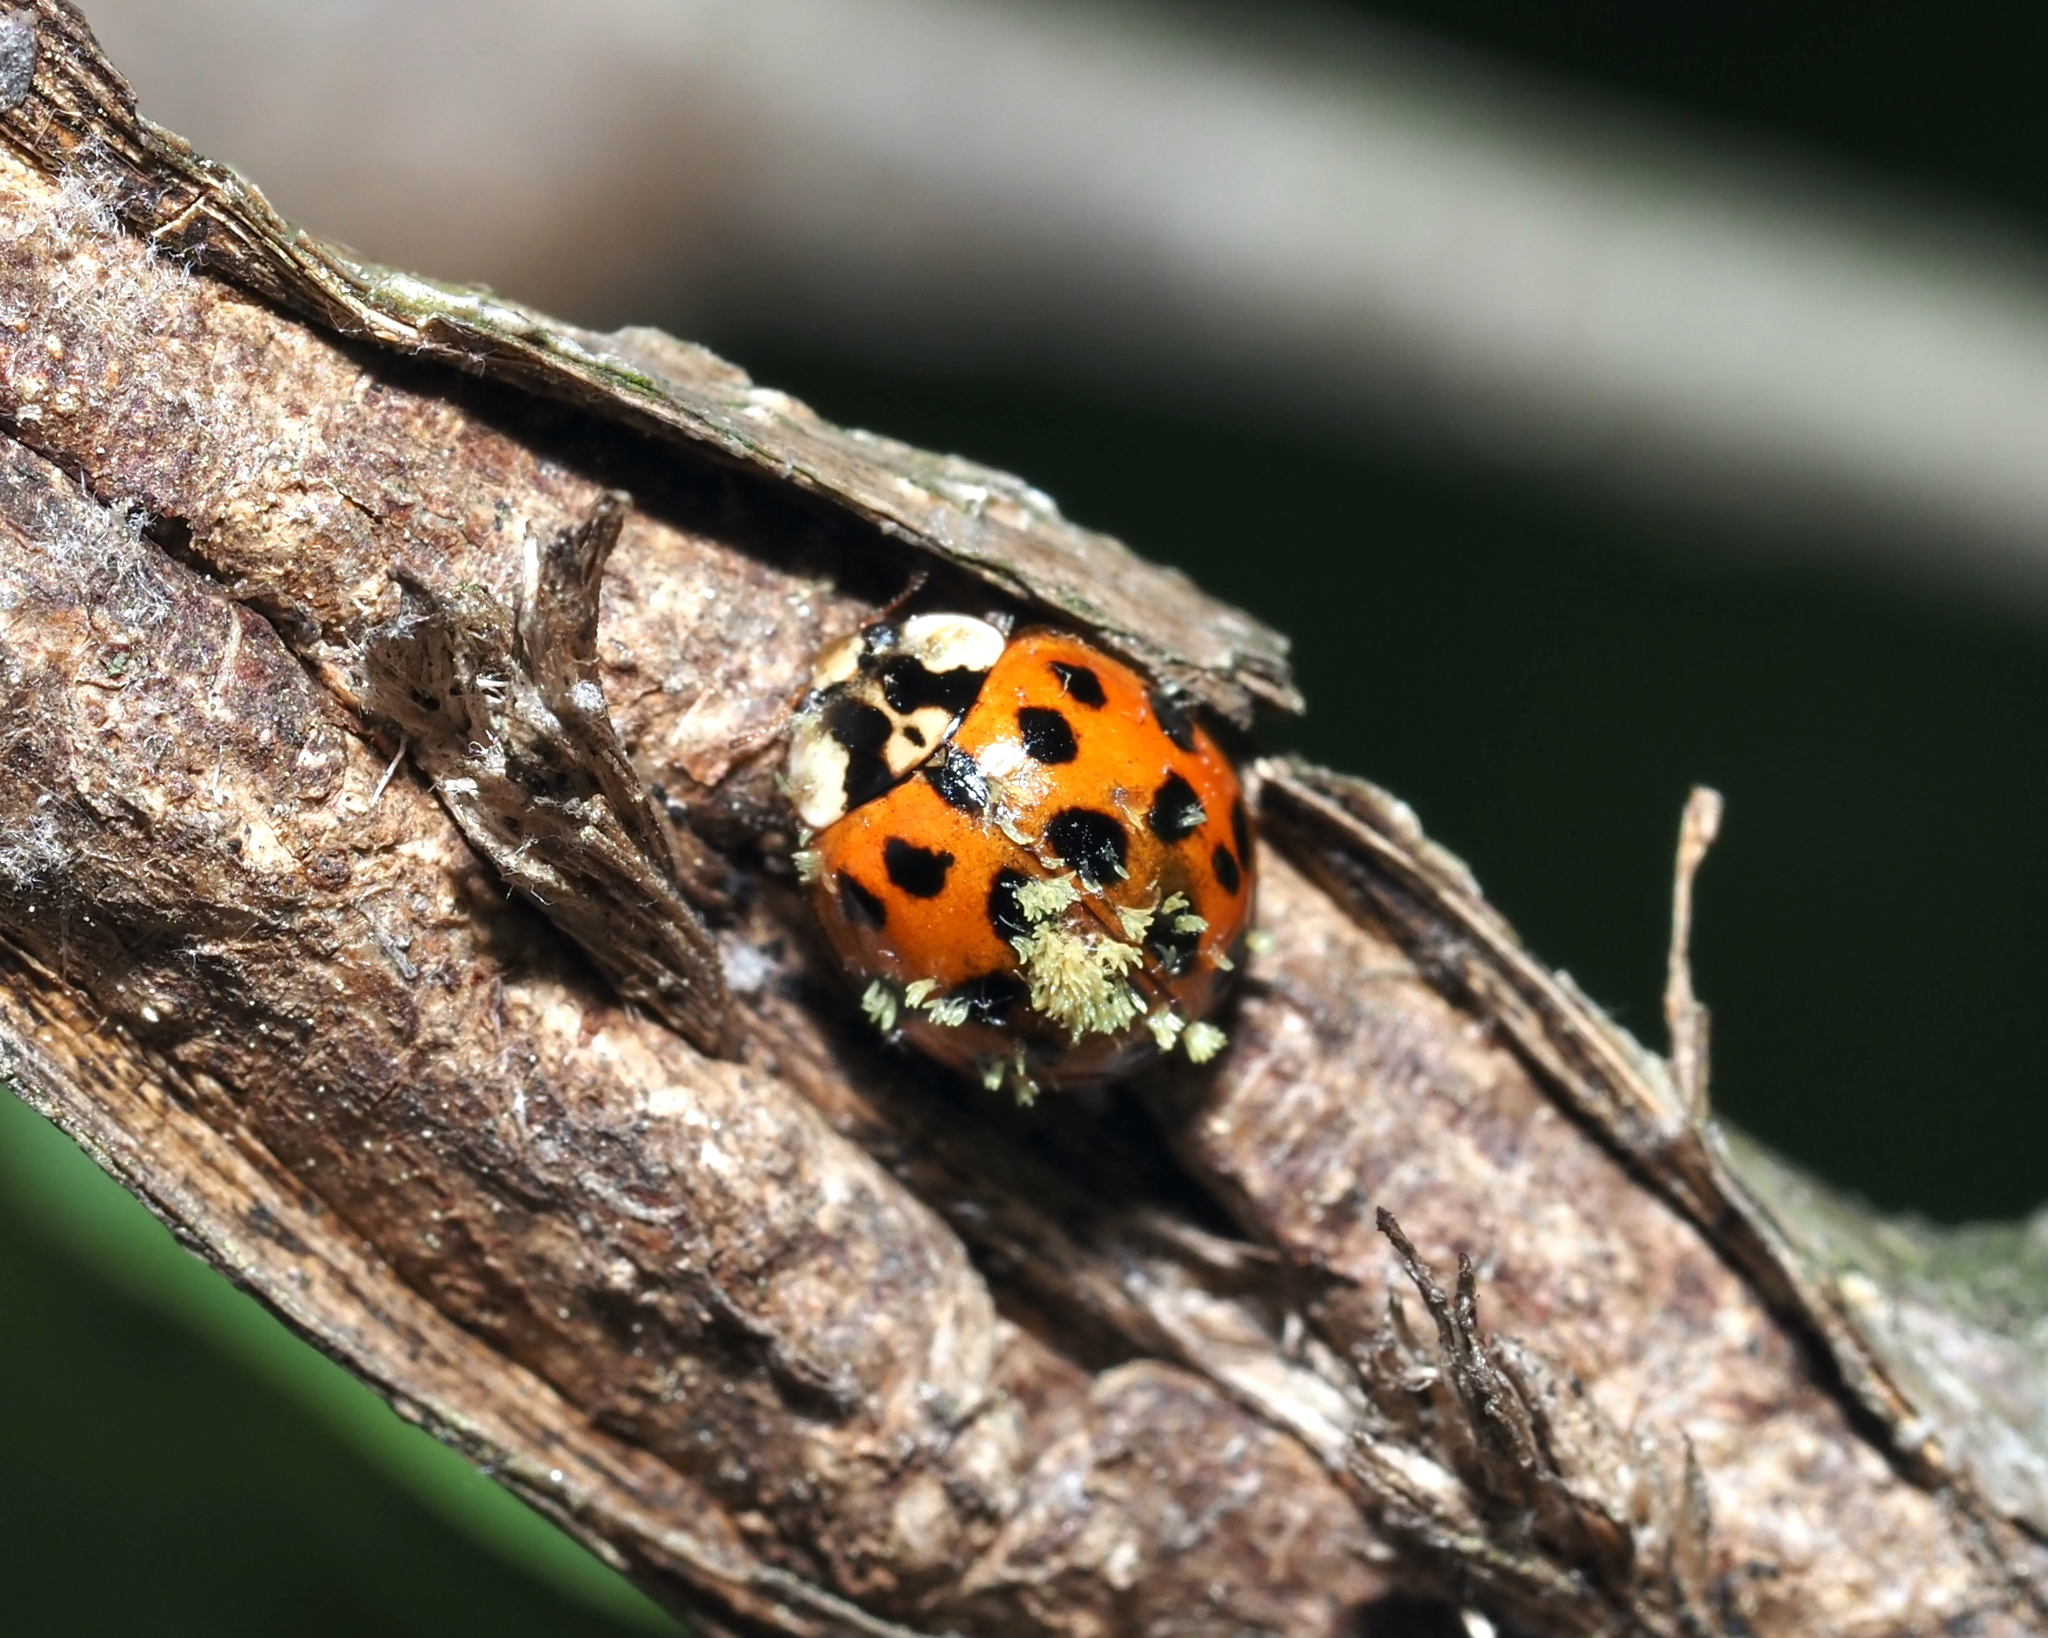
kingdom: Fungi
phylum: Ascomycota
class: Laboulbeniomycetes
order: Laboulbeniales
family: Laboulbeniaceae
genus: Hesperomyces
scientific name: Hesperomyces harmoniae
